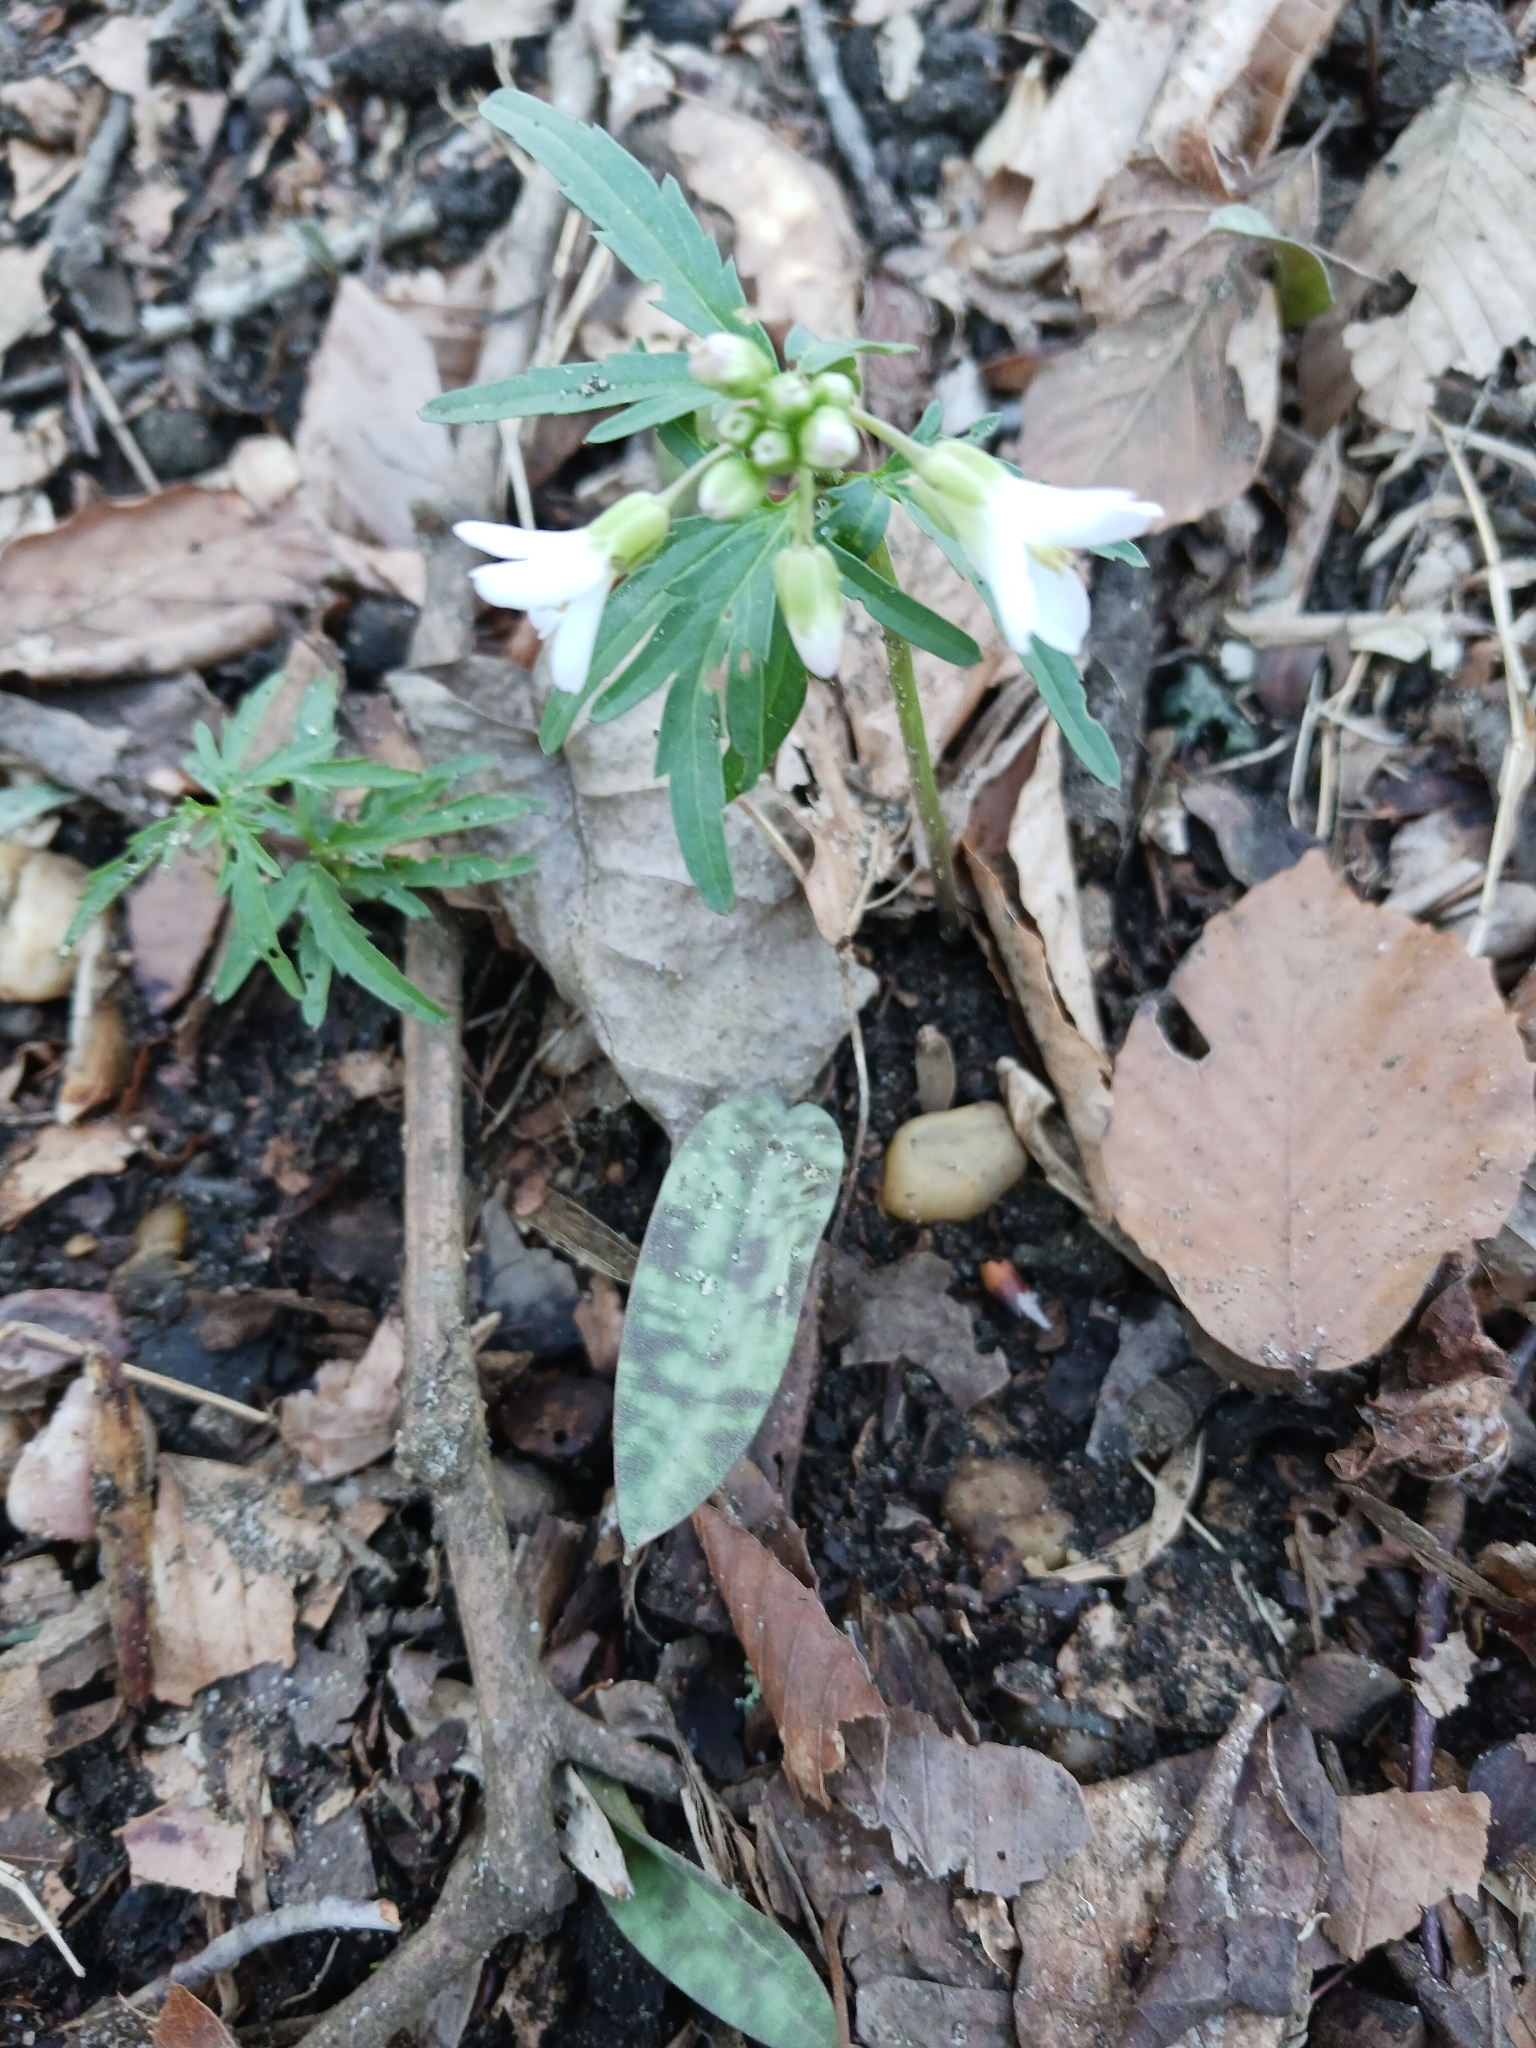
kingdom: Plantae
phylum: Tracheophyta
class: Magnoliopsida
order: Brassicales
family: Brassicaceae
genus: Cardamine
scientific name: Cardamine concatenata
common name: Cut-leaf toothcup
